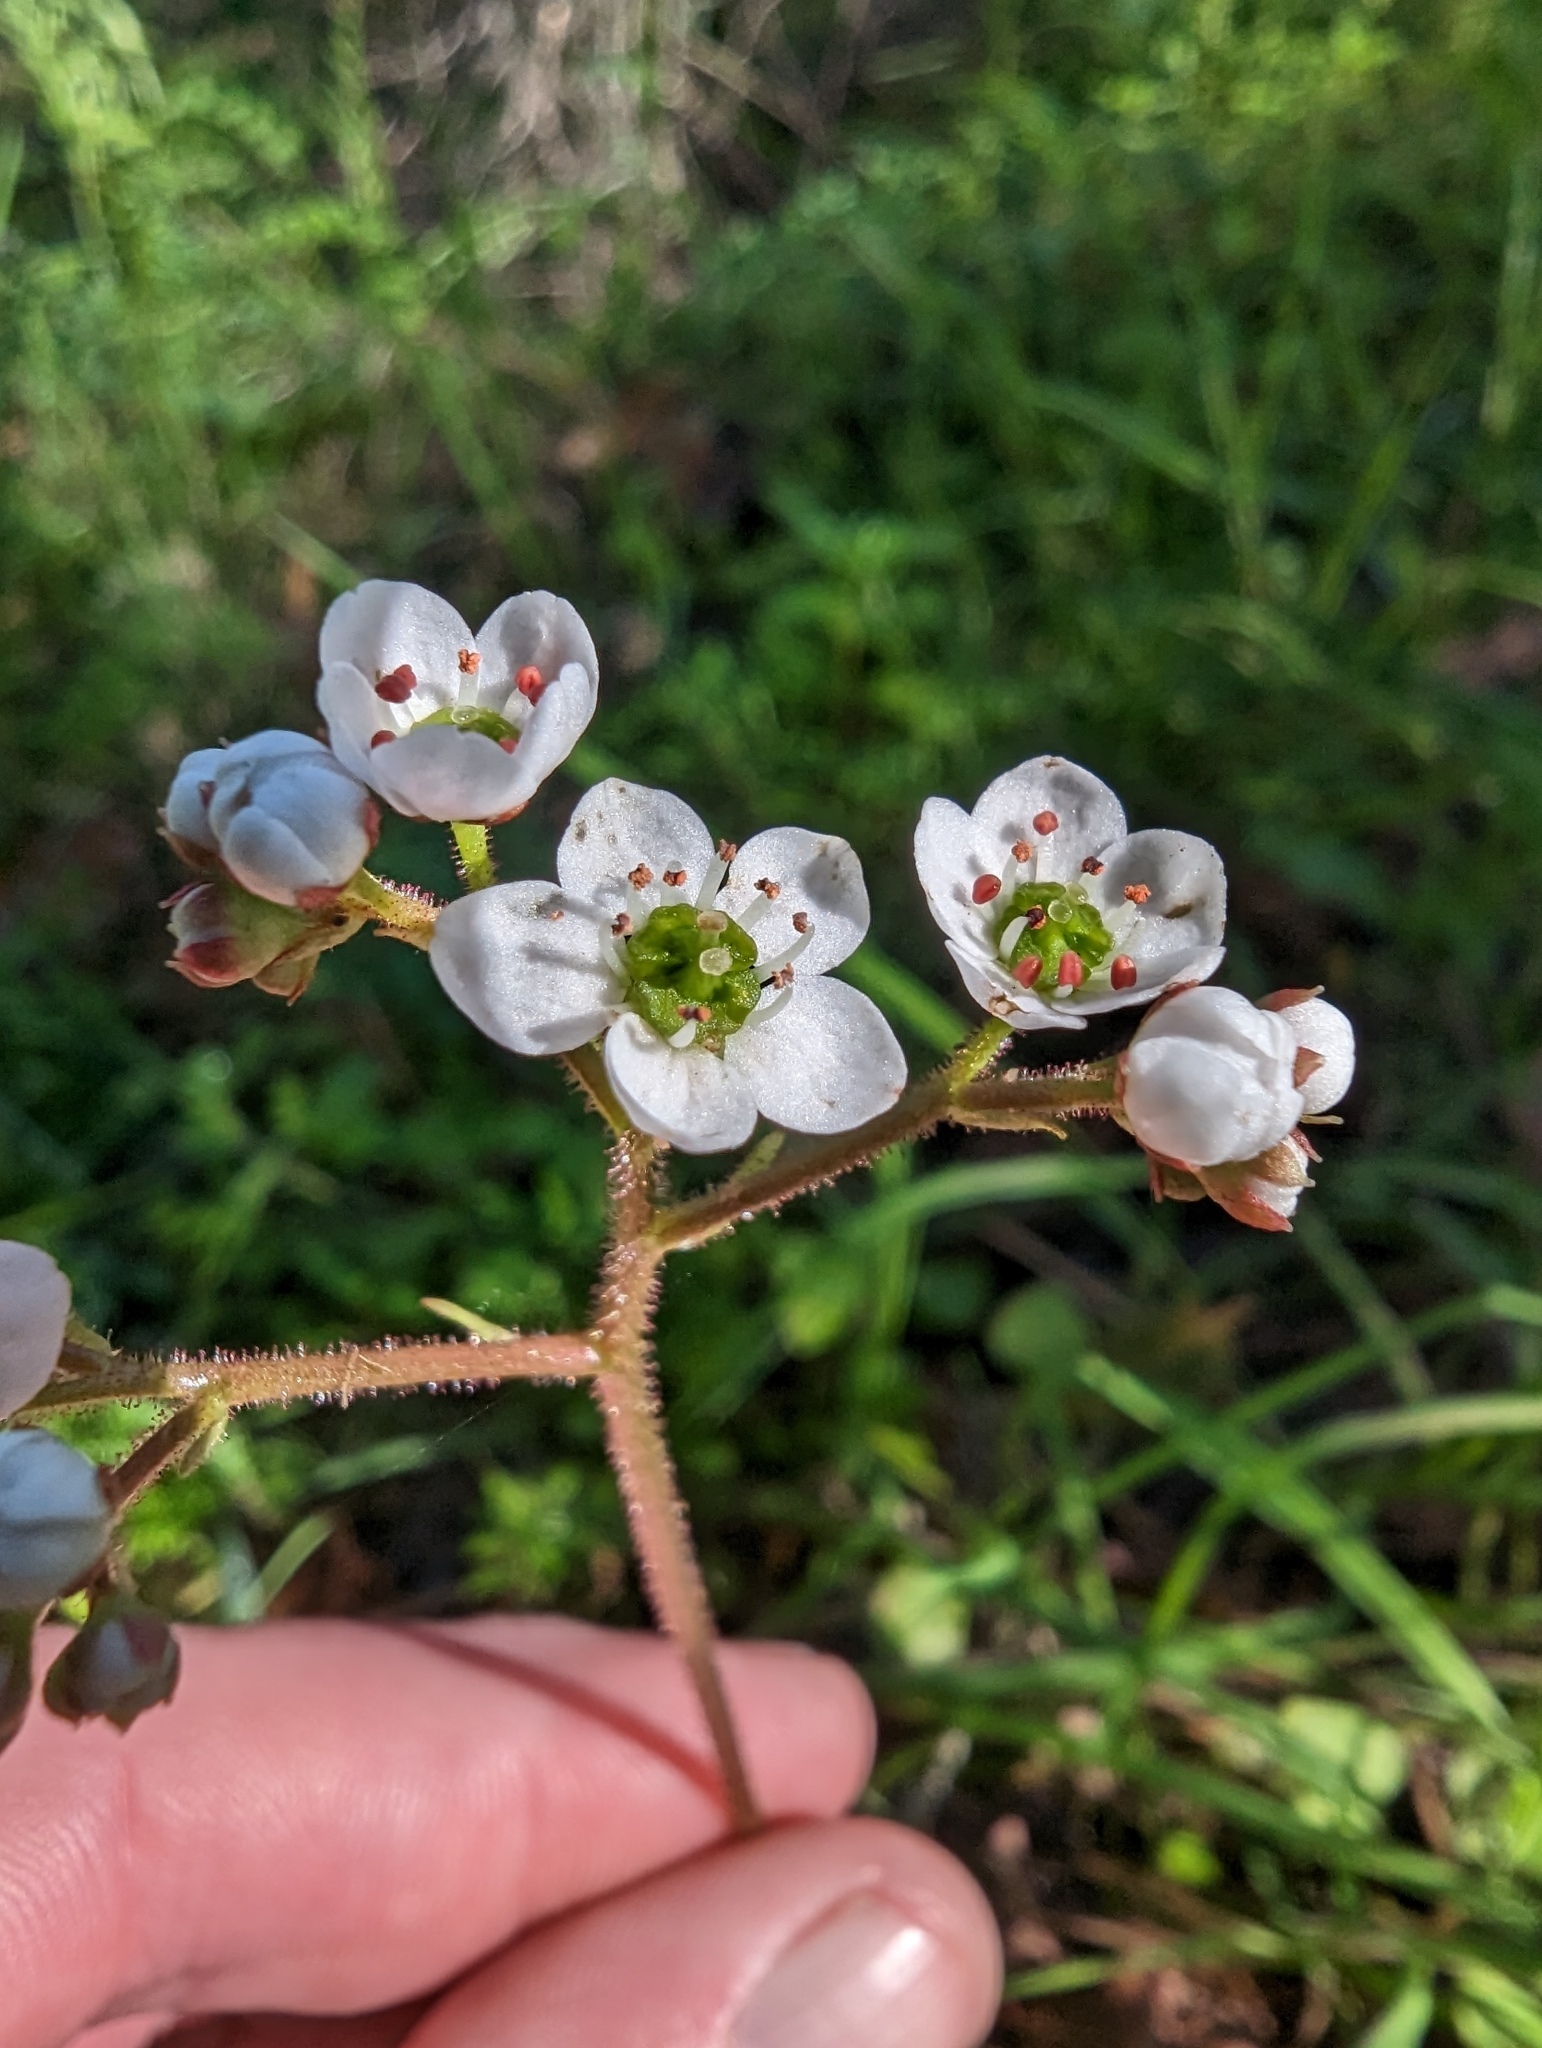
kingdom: Plantae
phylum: Tracheophyta
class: Magnoliopsida
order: Saxifragales
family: Saxifragaceae
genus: Micranthes
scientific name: Micranthes californica
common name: California saxifrage
